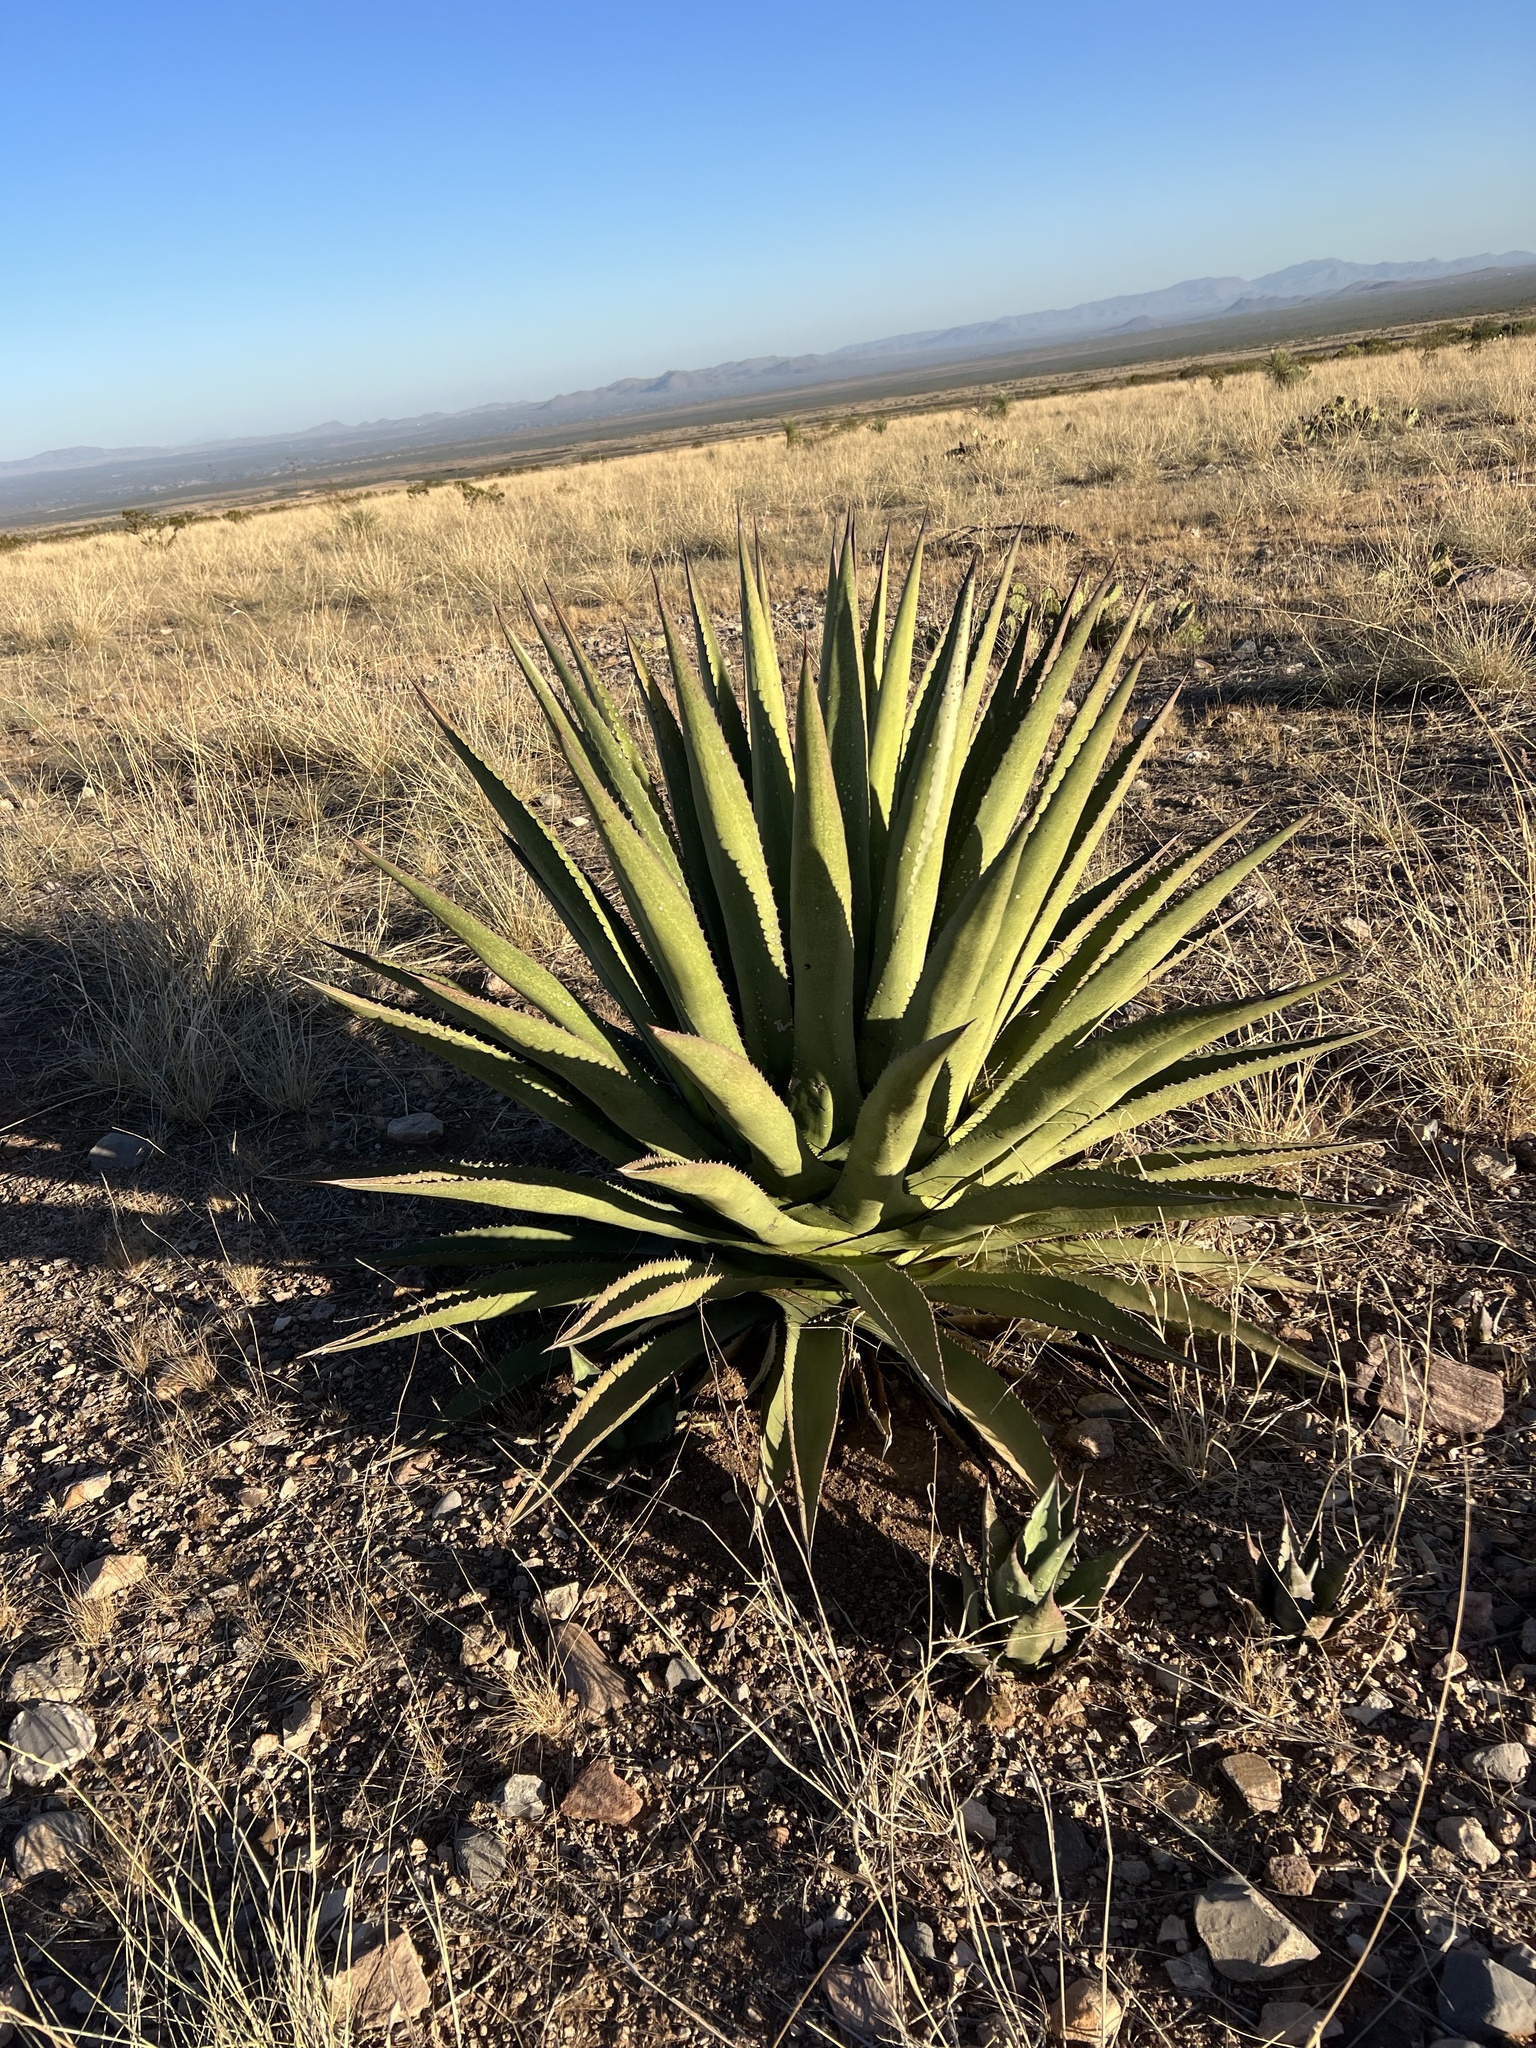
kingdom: Plantae
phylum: Tracheophyta
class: Liliopsida
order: Asparagales
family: Asparagaceae
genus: Agave
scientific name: Agave palmeri
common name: Palmer agave
